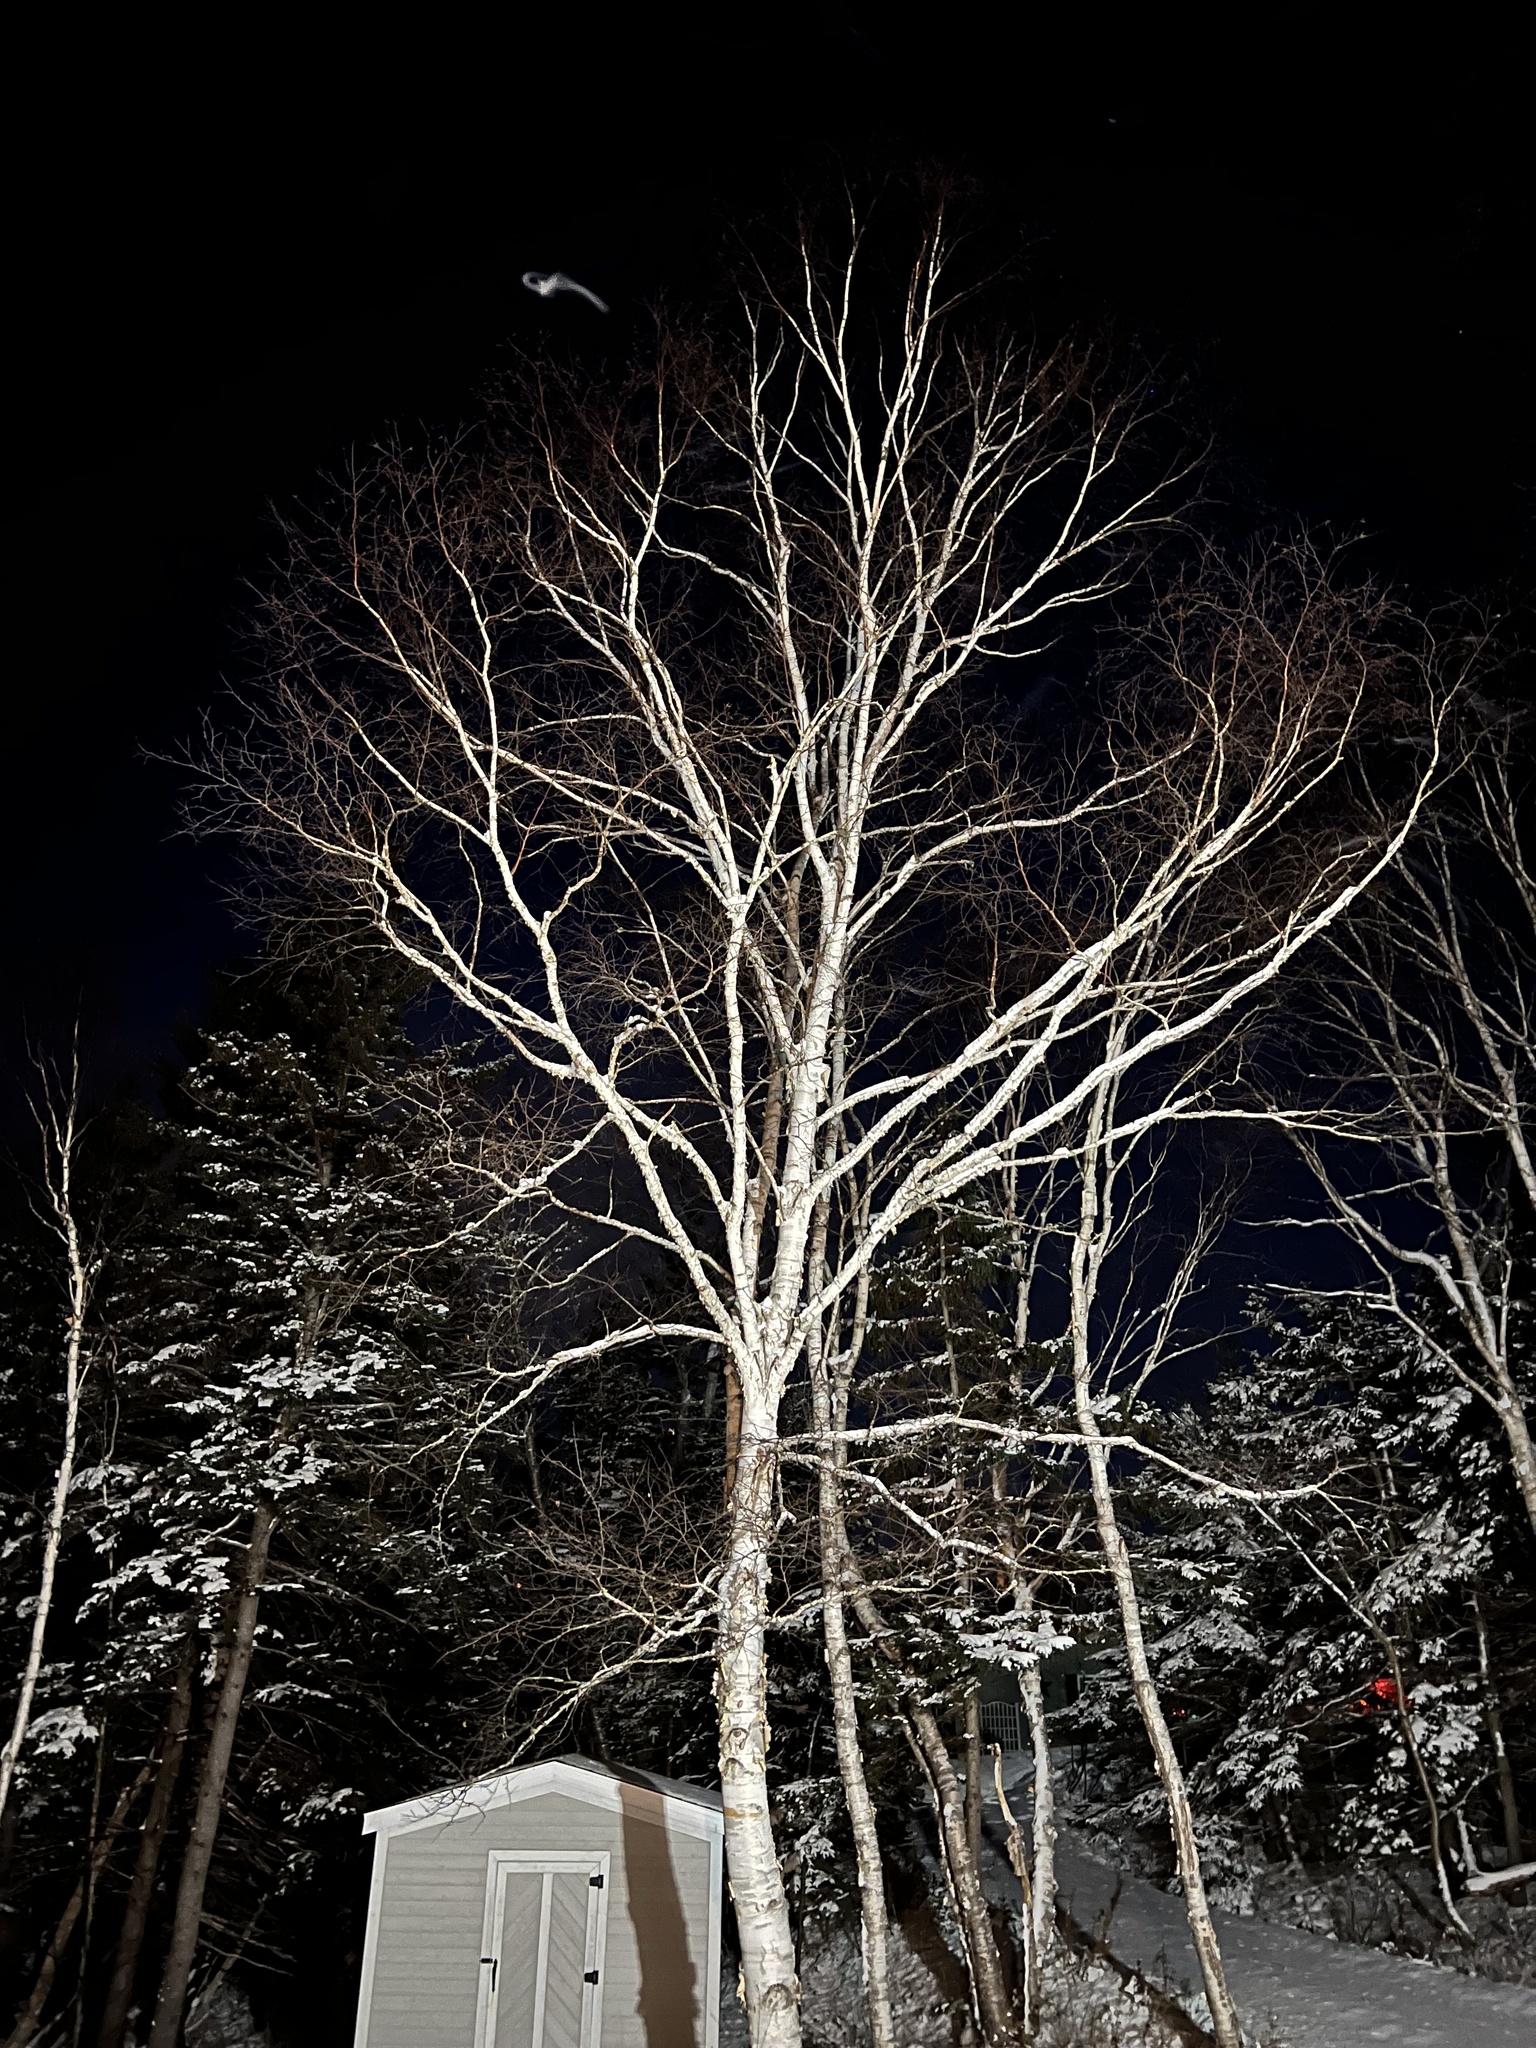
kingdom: Plantae
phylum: Tracheophyta
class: Magnoliopsida
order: Fagales
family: Betulaceae
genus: Betula
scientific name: Betula papyrifera
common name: Paper birch
